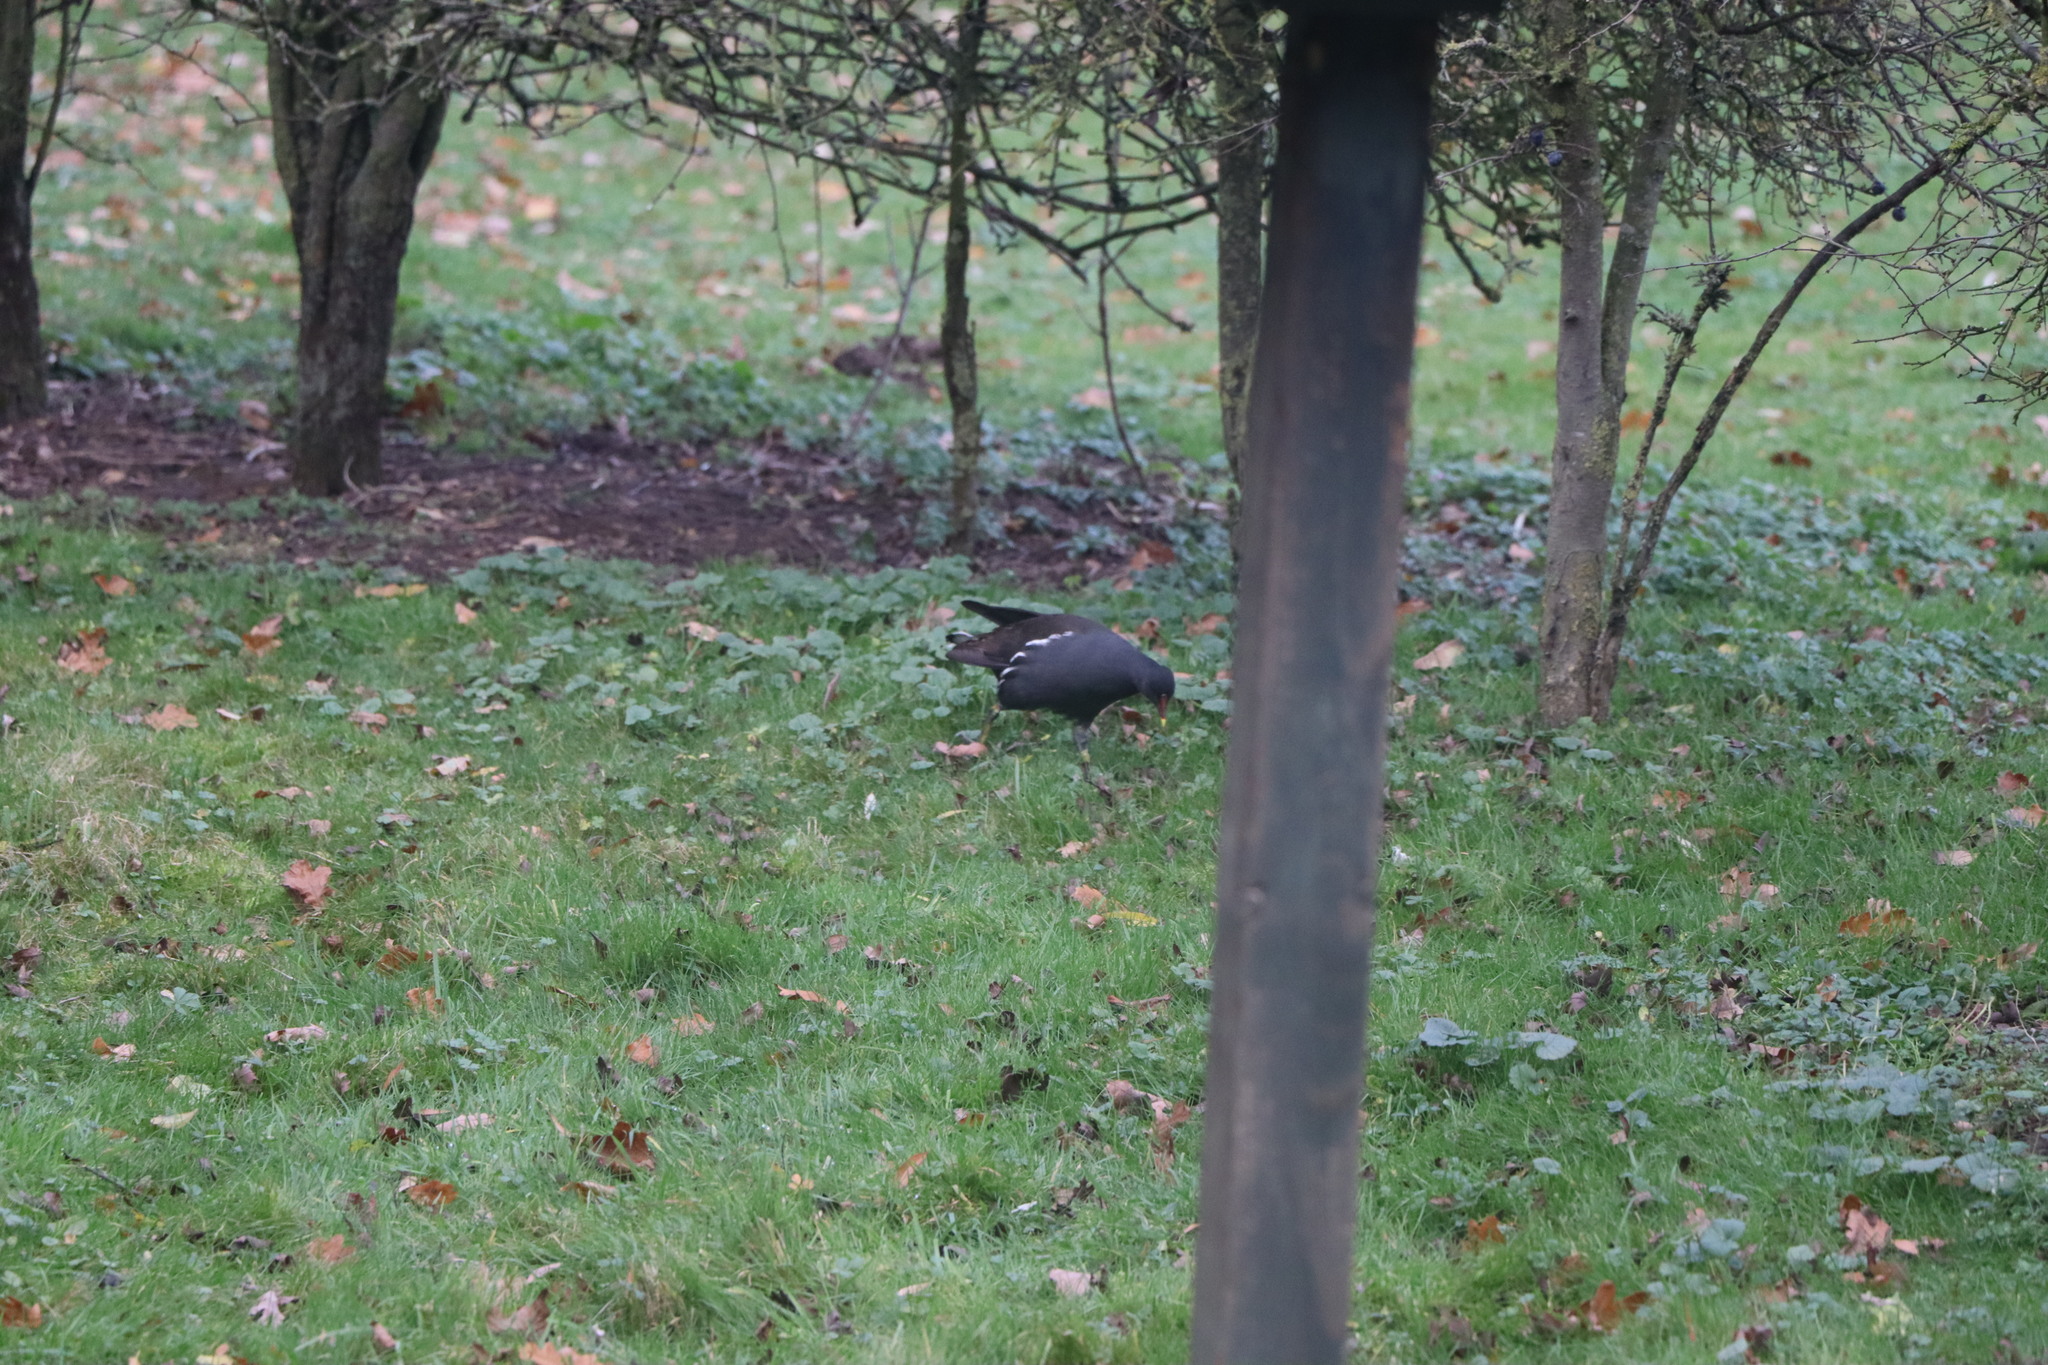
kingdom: Animalia
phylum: Chordata
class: Aves
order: Gruiformes
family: Rallidae
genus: Gallinula
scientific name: Gallinula chloropus
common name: Common moorhen
